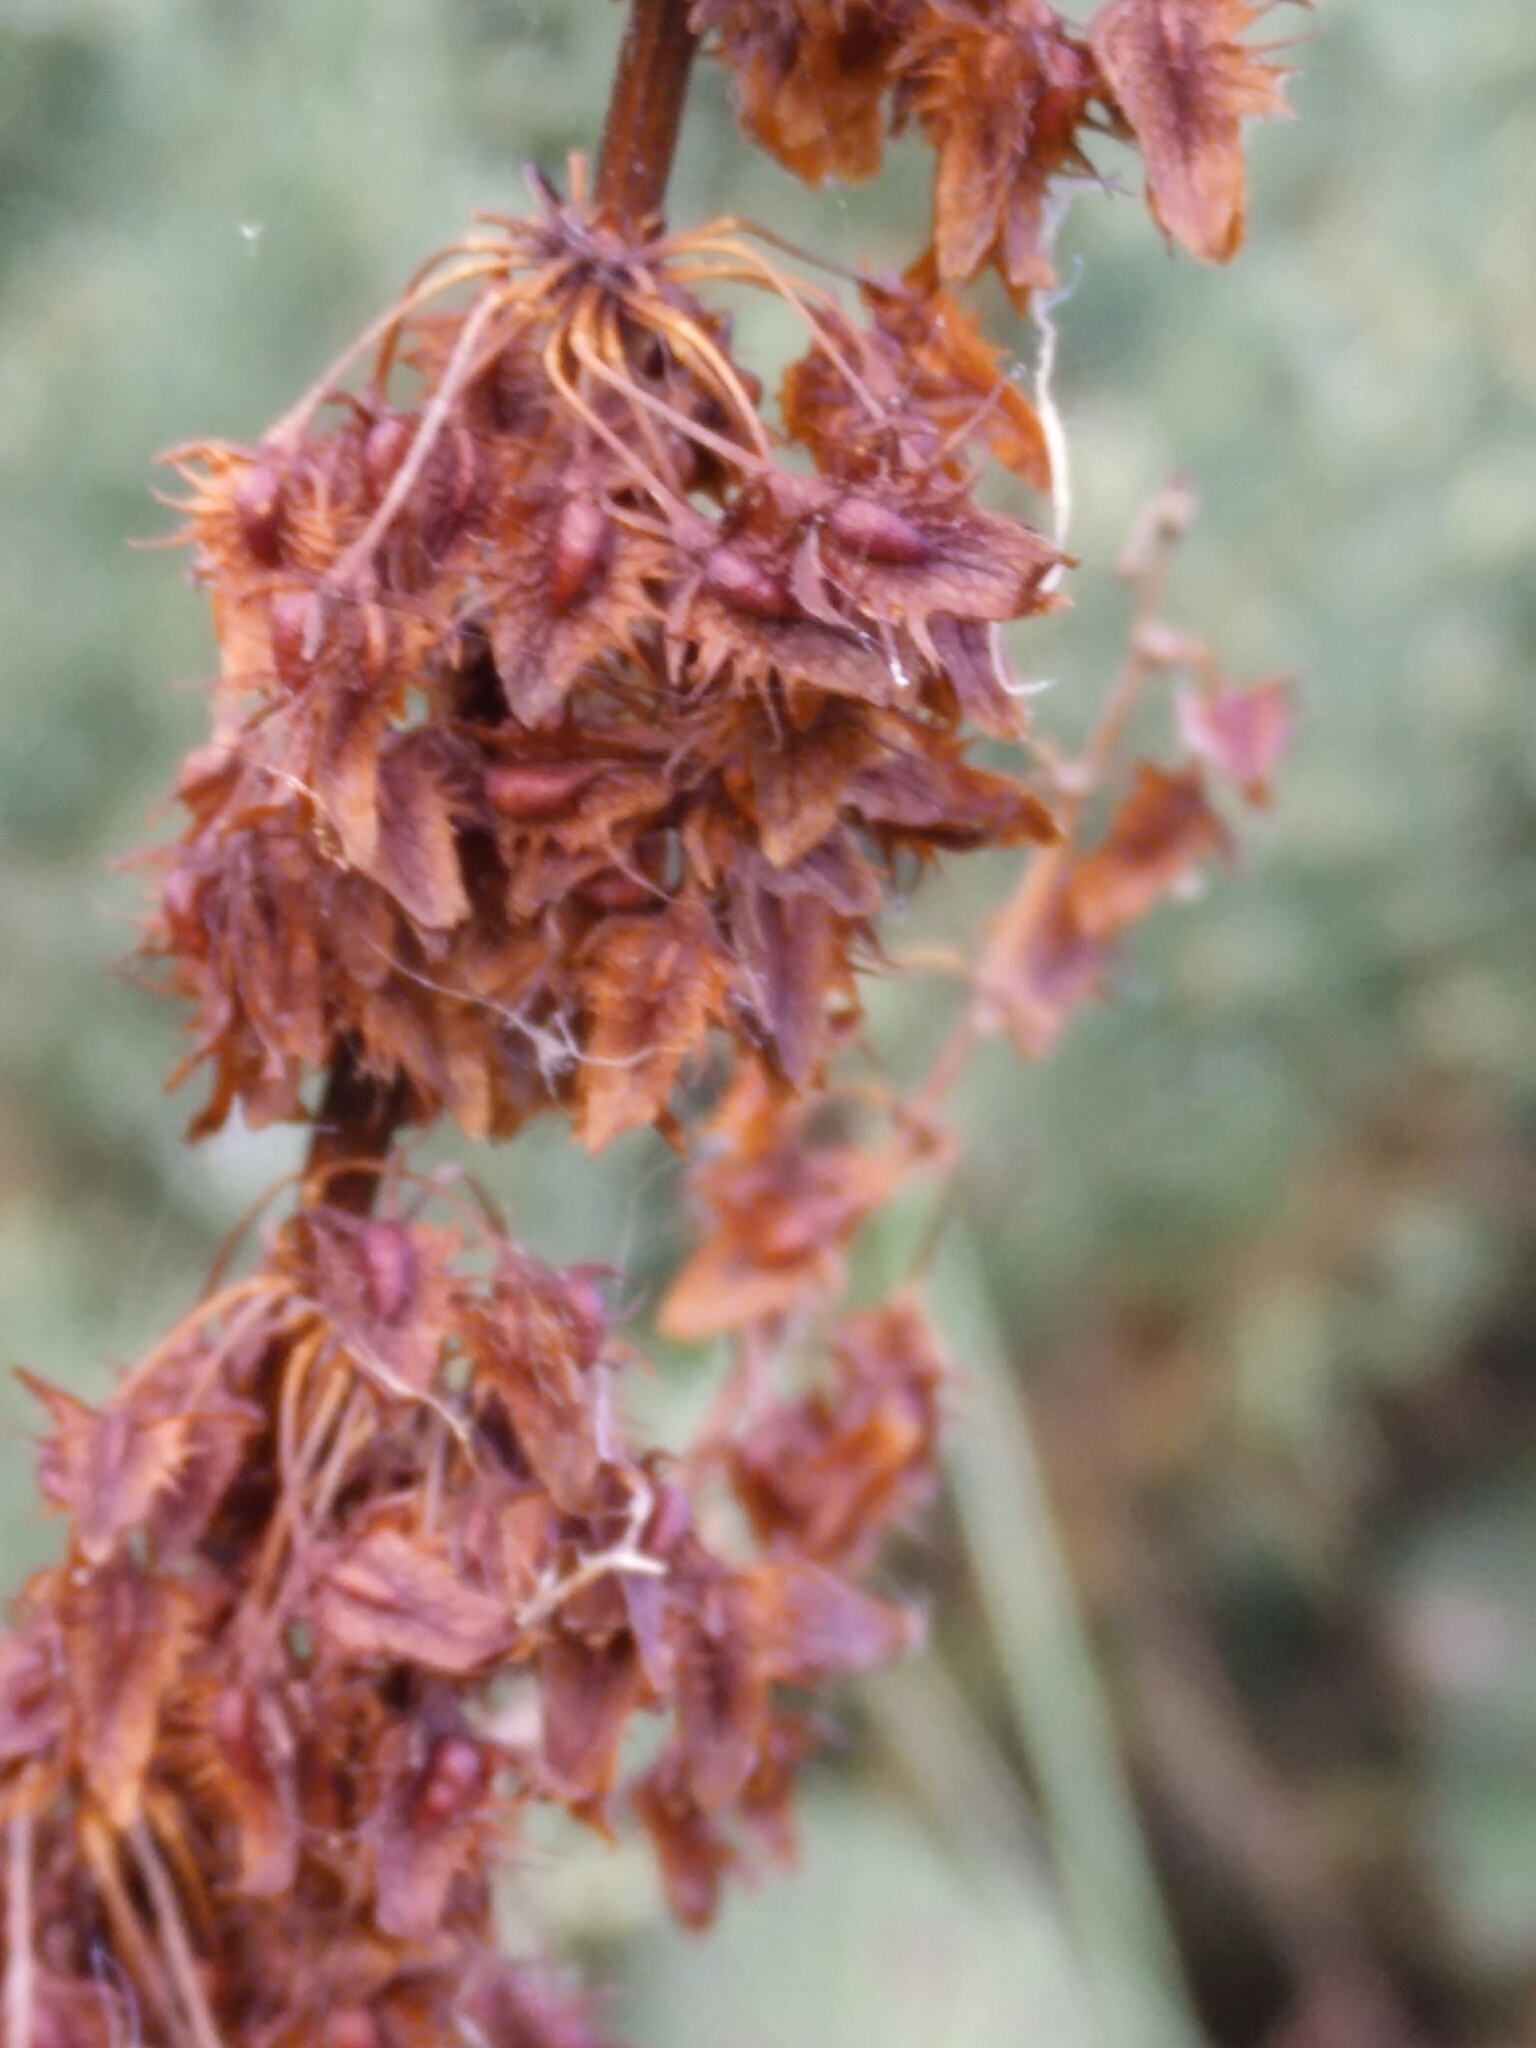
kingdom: Plantae
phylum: Tracheophyta
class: Magnoliopsida
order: Caryophyllales
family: Polygonaceae
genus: Rumex
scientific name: Rumex obtusifolius
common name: Bitter dock
